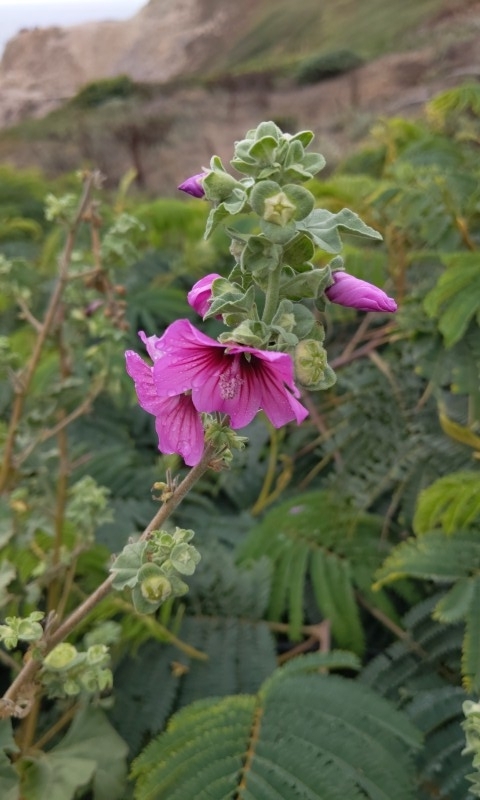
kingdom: Plantae
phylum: Tracheophyta
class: Magnoliopsida
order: Malvales
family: Malvaceae
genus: Malva
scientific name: Malva arborea
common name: Tree mallow
